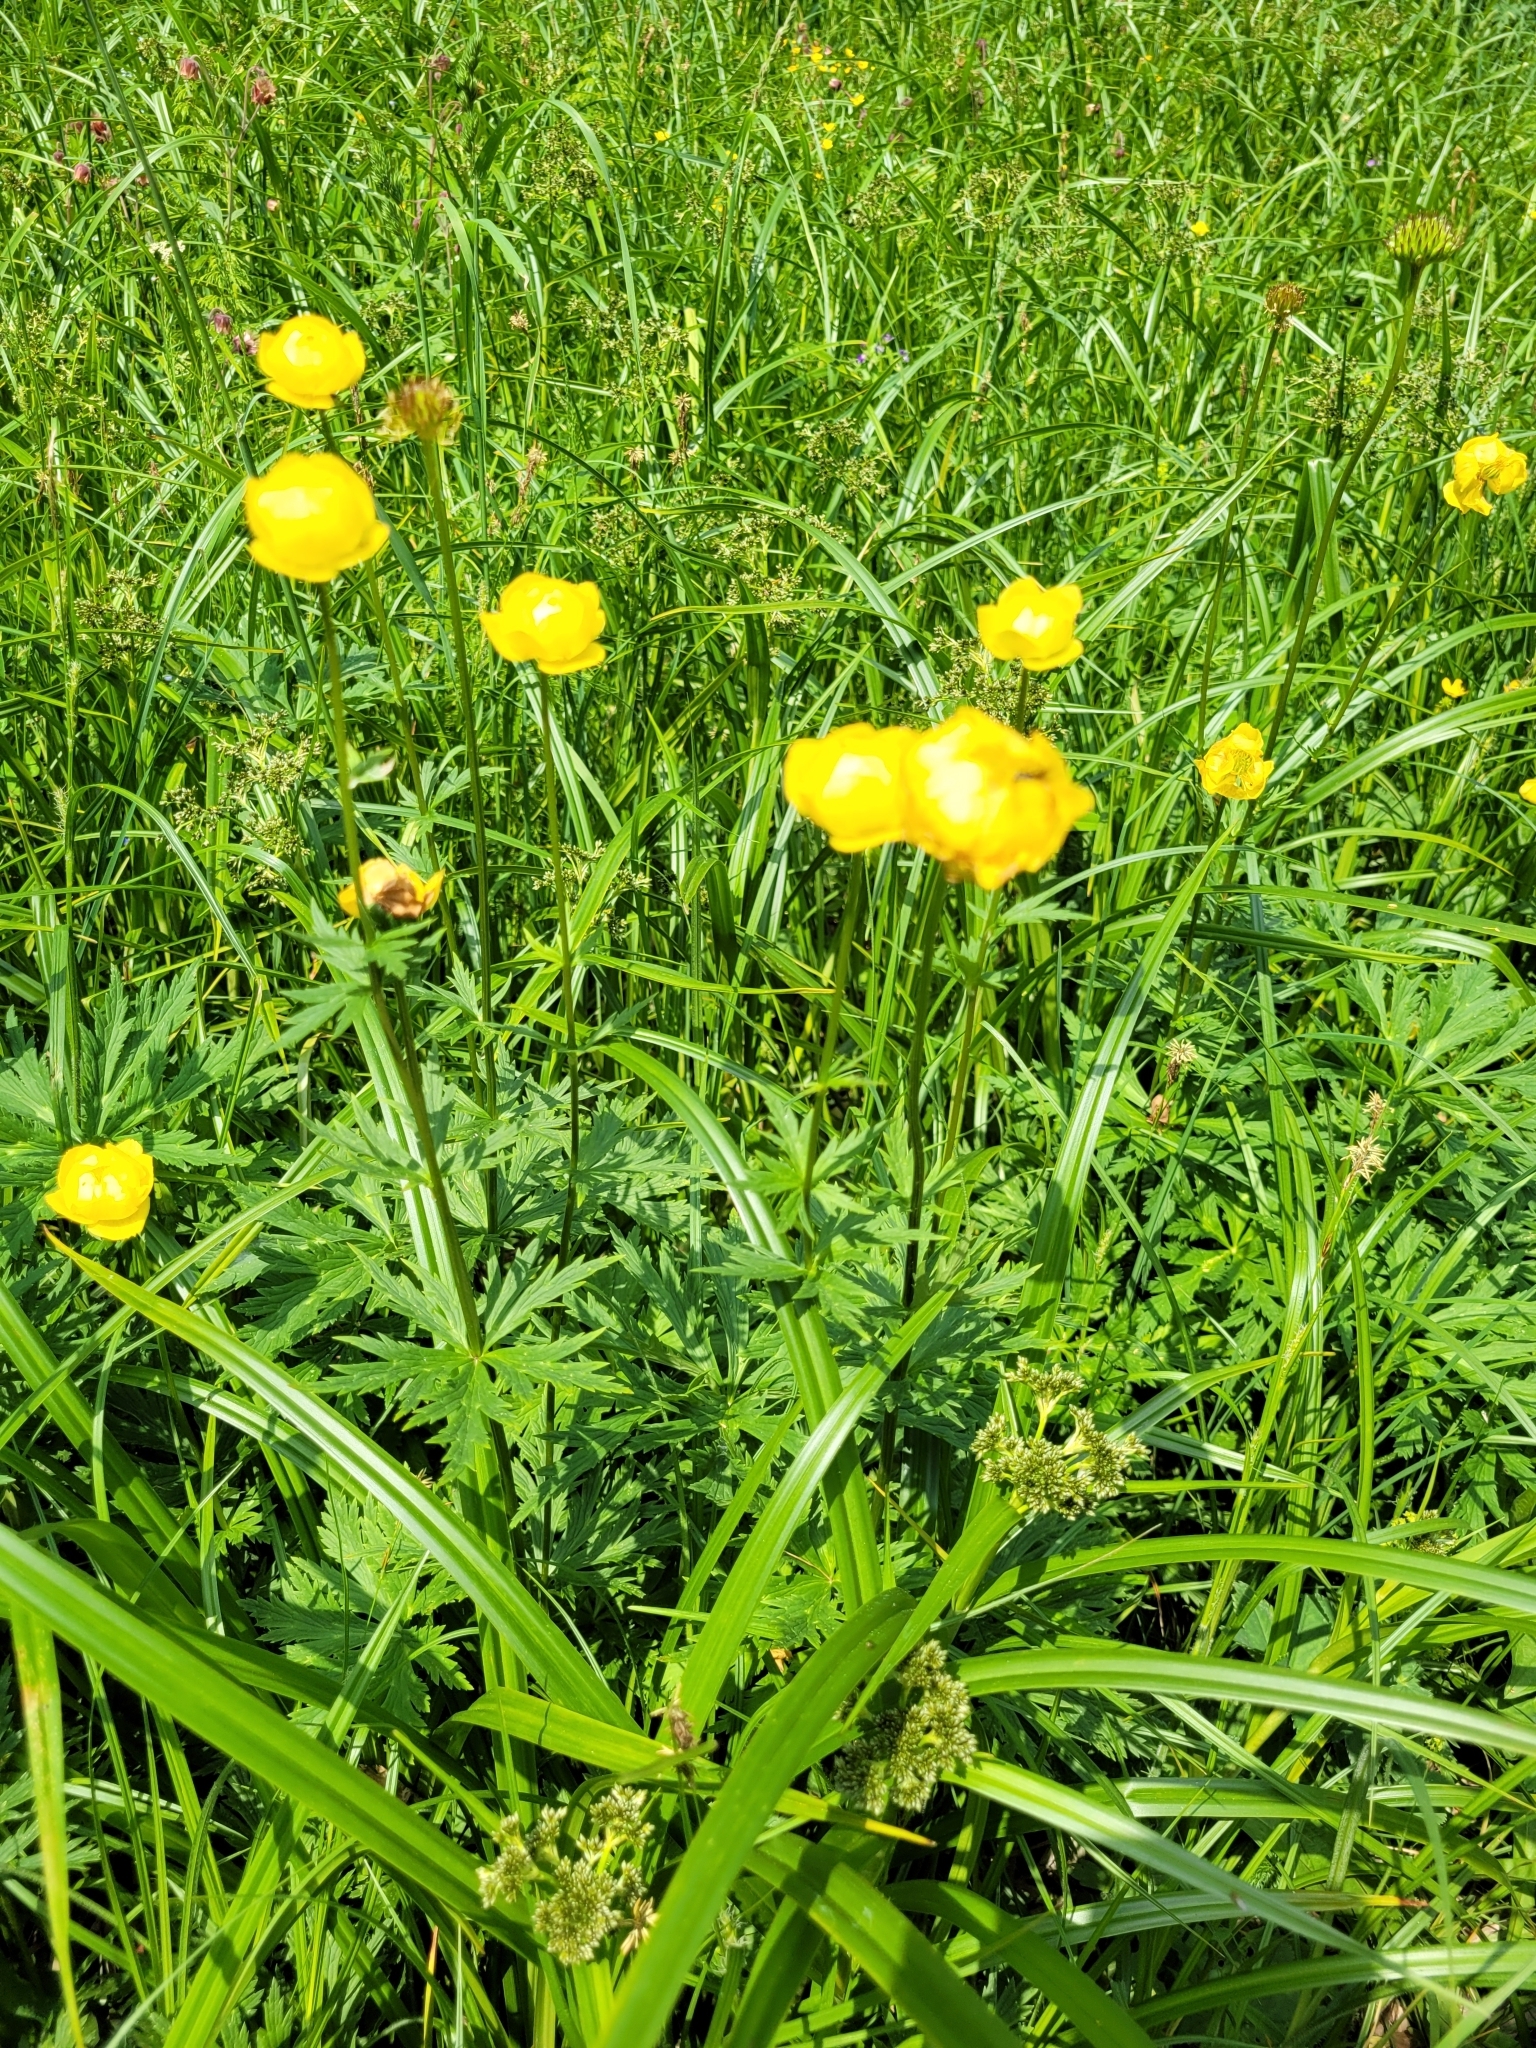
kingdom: Plantae
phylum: Tracheophyta
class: Magnoliopsida
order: Ranunculales
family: Ranunculaceae
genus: Trollius
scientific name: Trollius europaeus
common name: European globeflower
